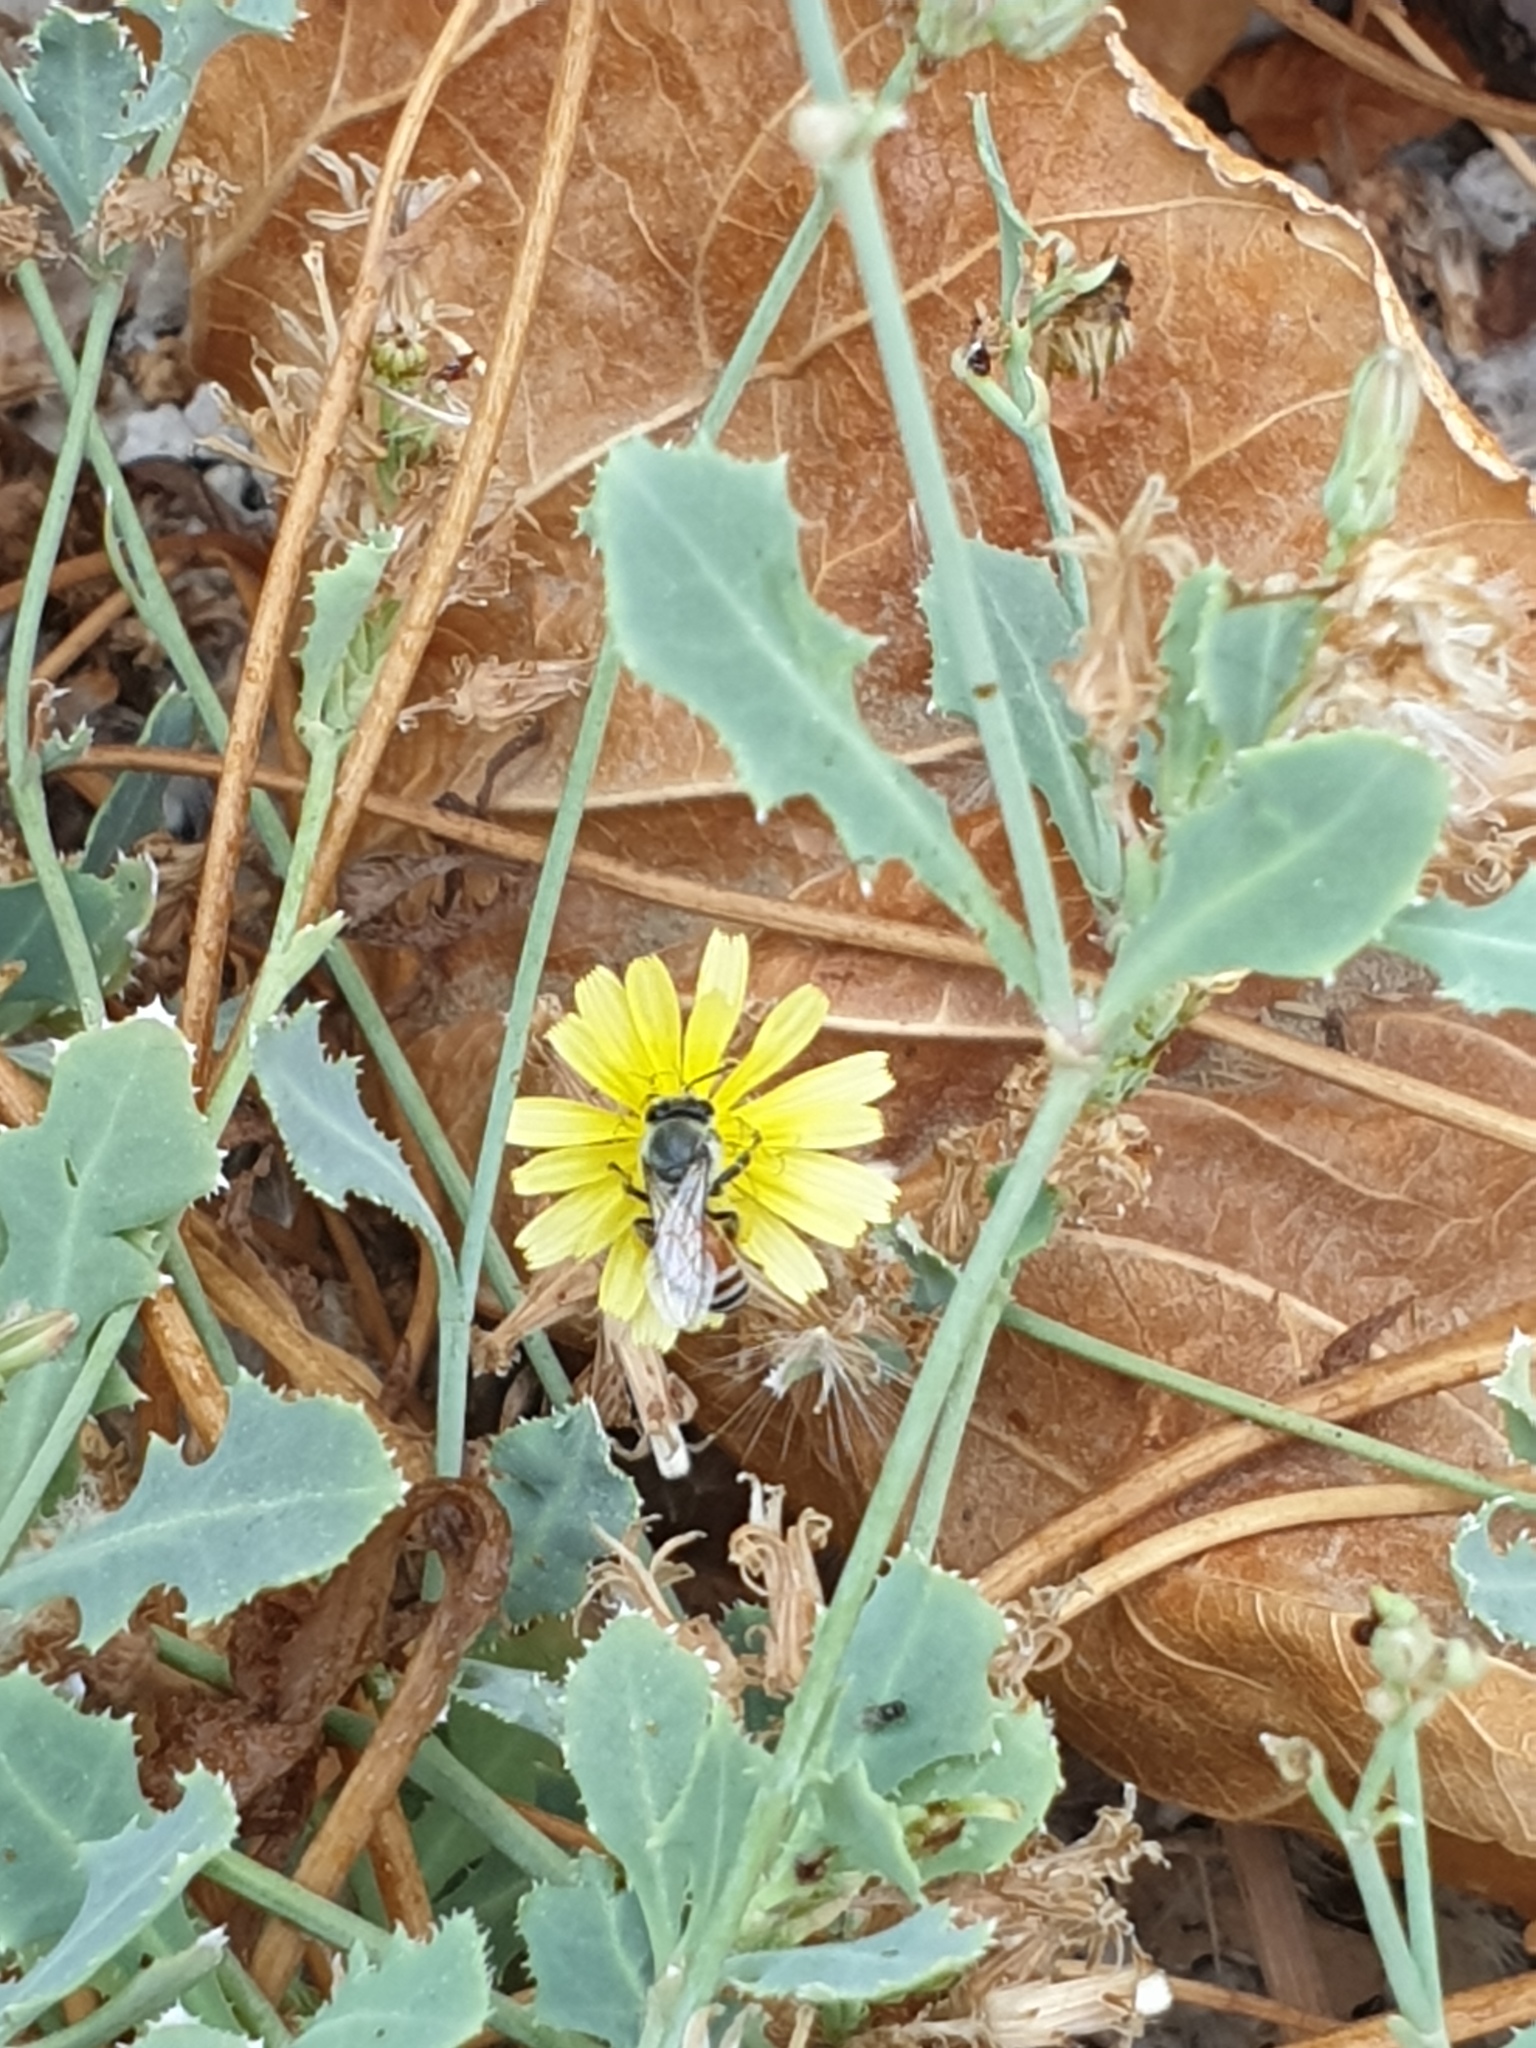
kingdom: Animalia
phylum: Arthropoda
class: Insecta
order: Hymenoptera
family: Apidae
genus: Apis
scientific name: Apis florea
